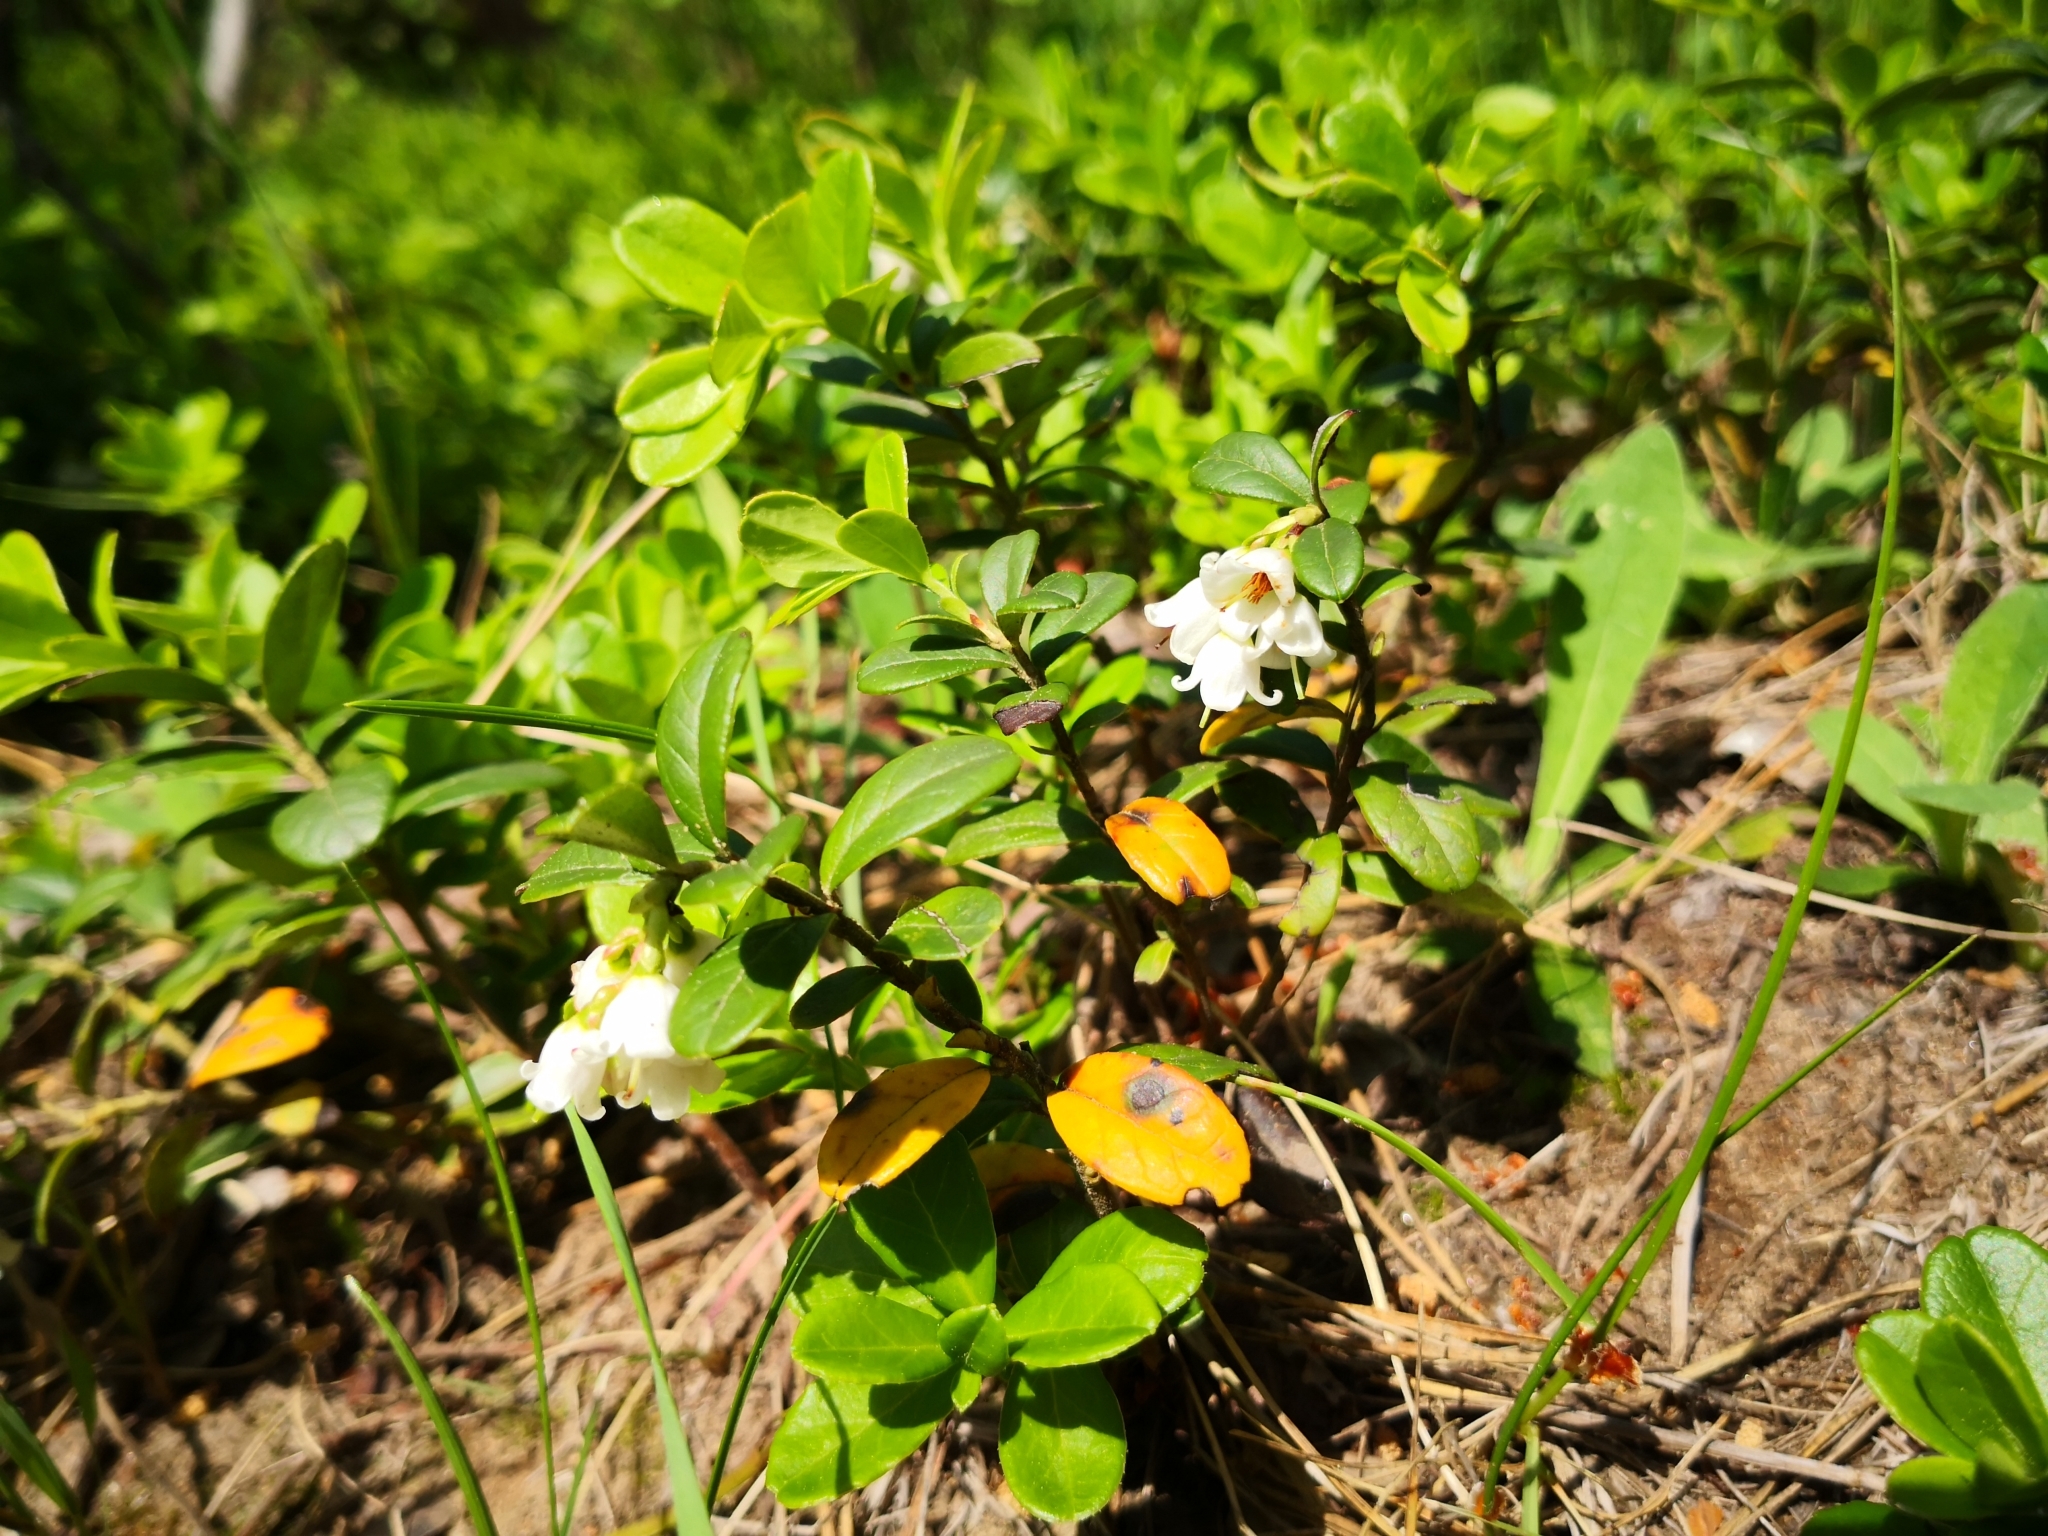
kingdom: Plantae
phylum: Tracheophyta
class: Magnoliopsida
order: Ericales
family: Ericaceae
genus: Vaccinium
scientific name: Vaccinium vitis-idaea
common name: Cowberry
